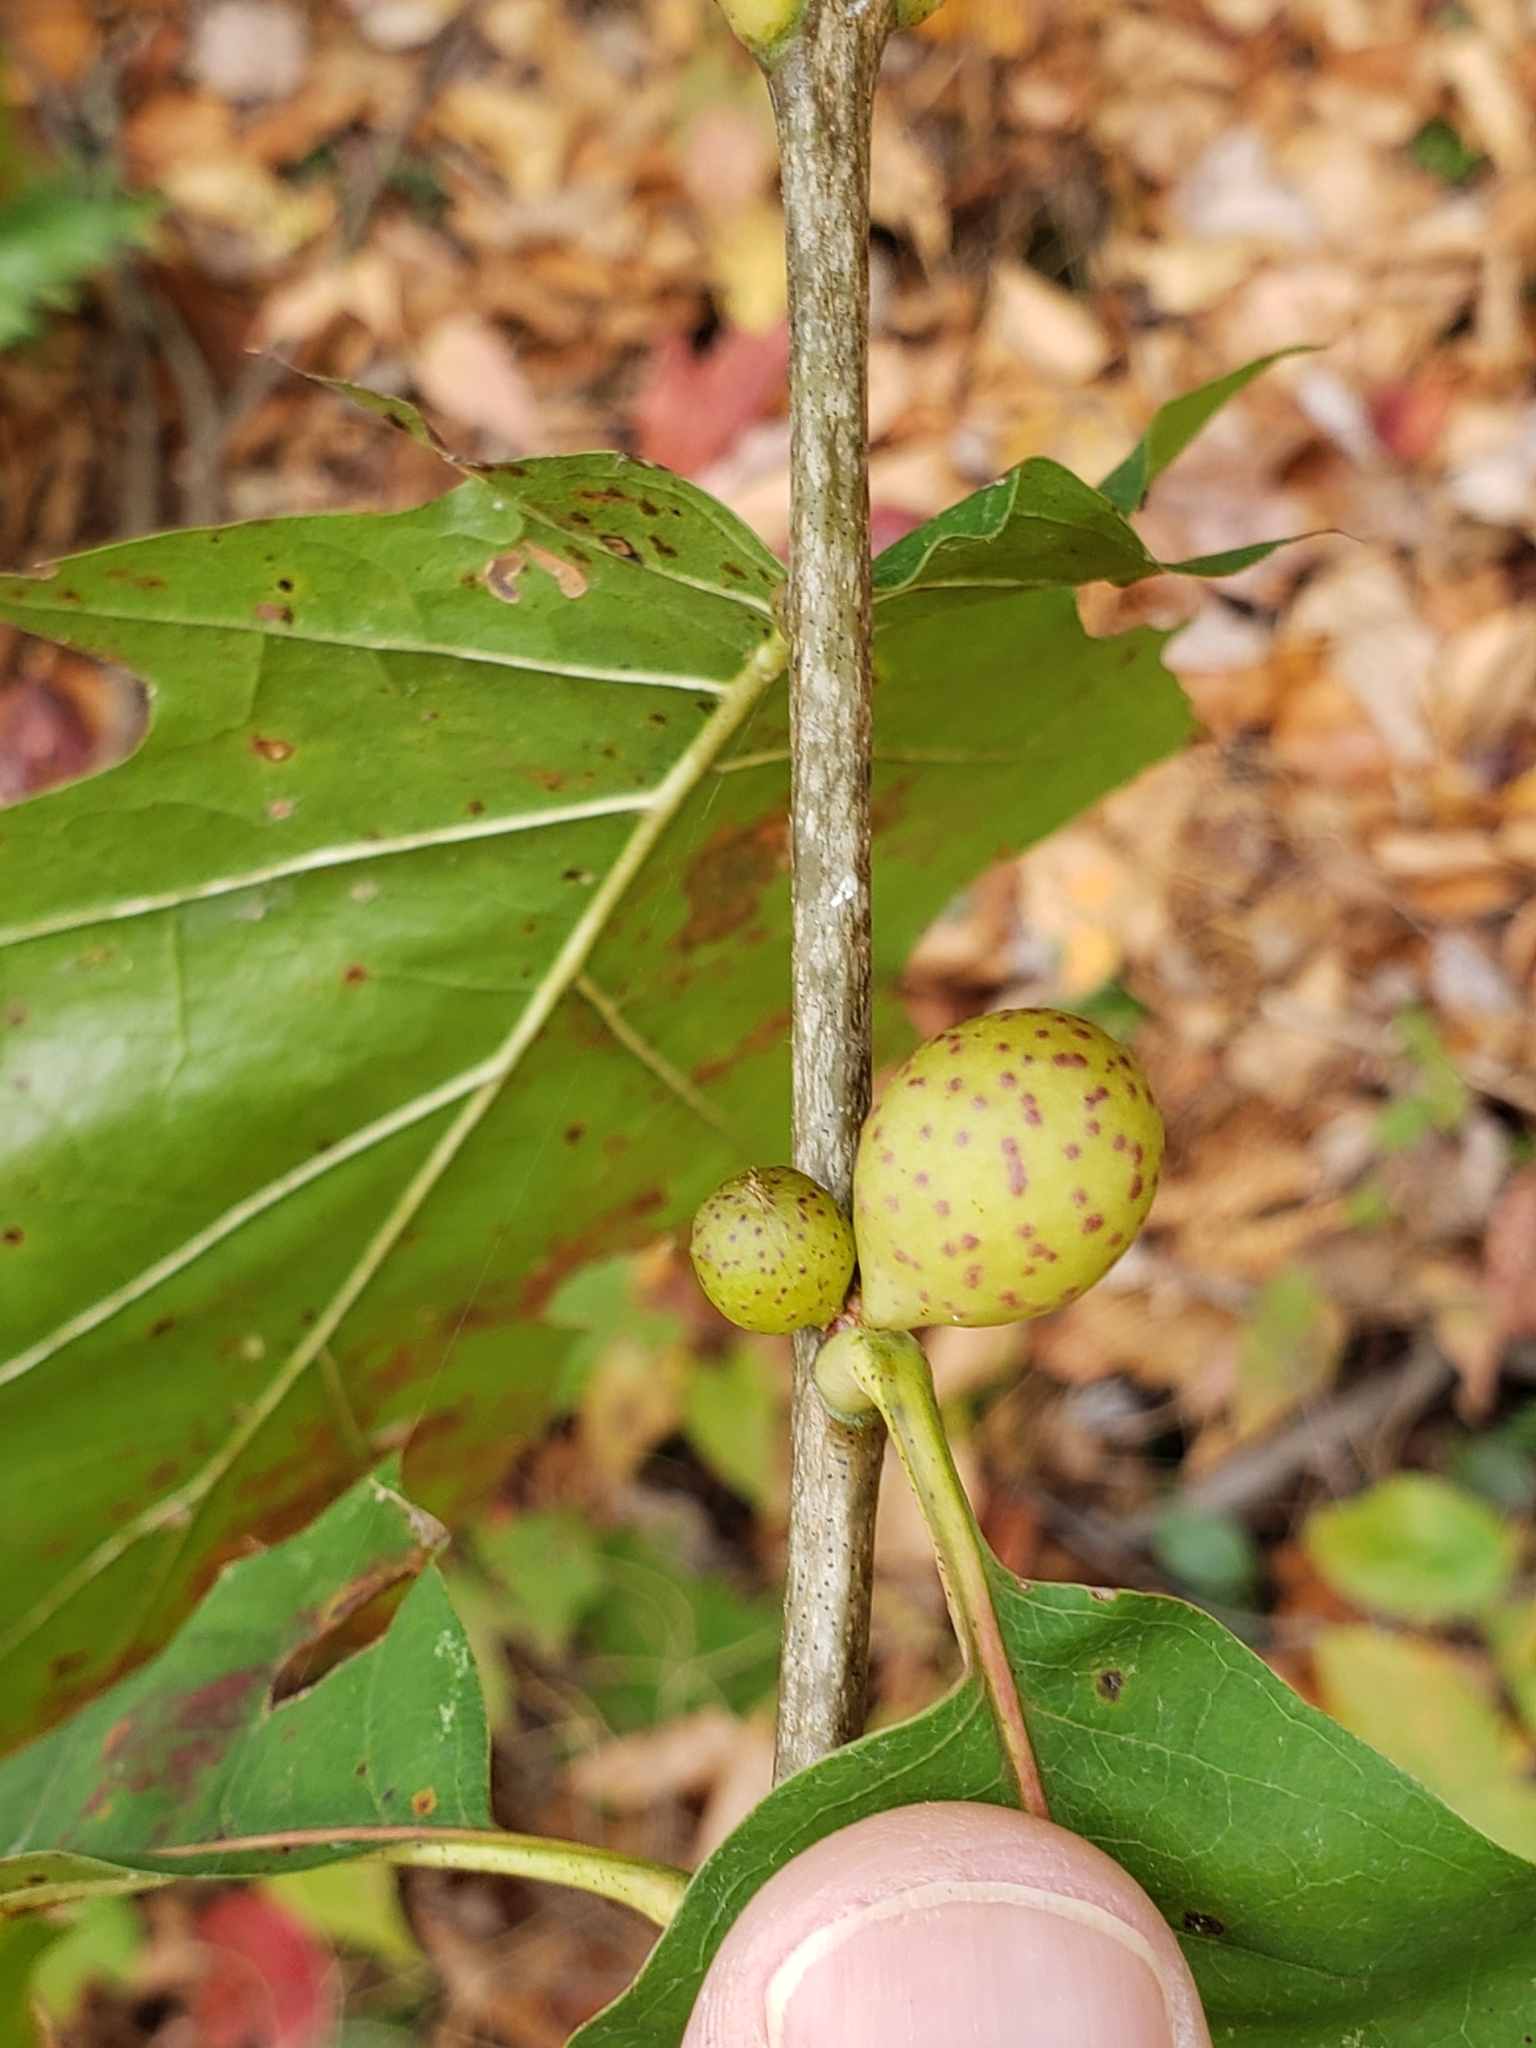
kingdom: Animalia
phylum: Arthropoda
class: Insecta
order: Hymenoptera
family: Cynipidae
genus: Amphibolips
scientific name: Amphibolips
